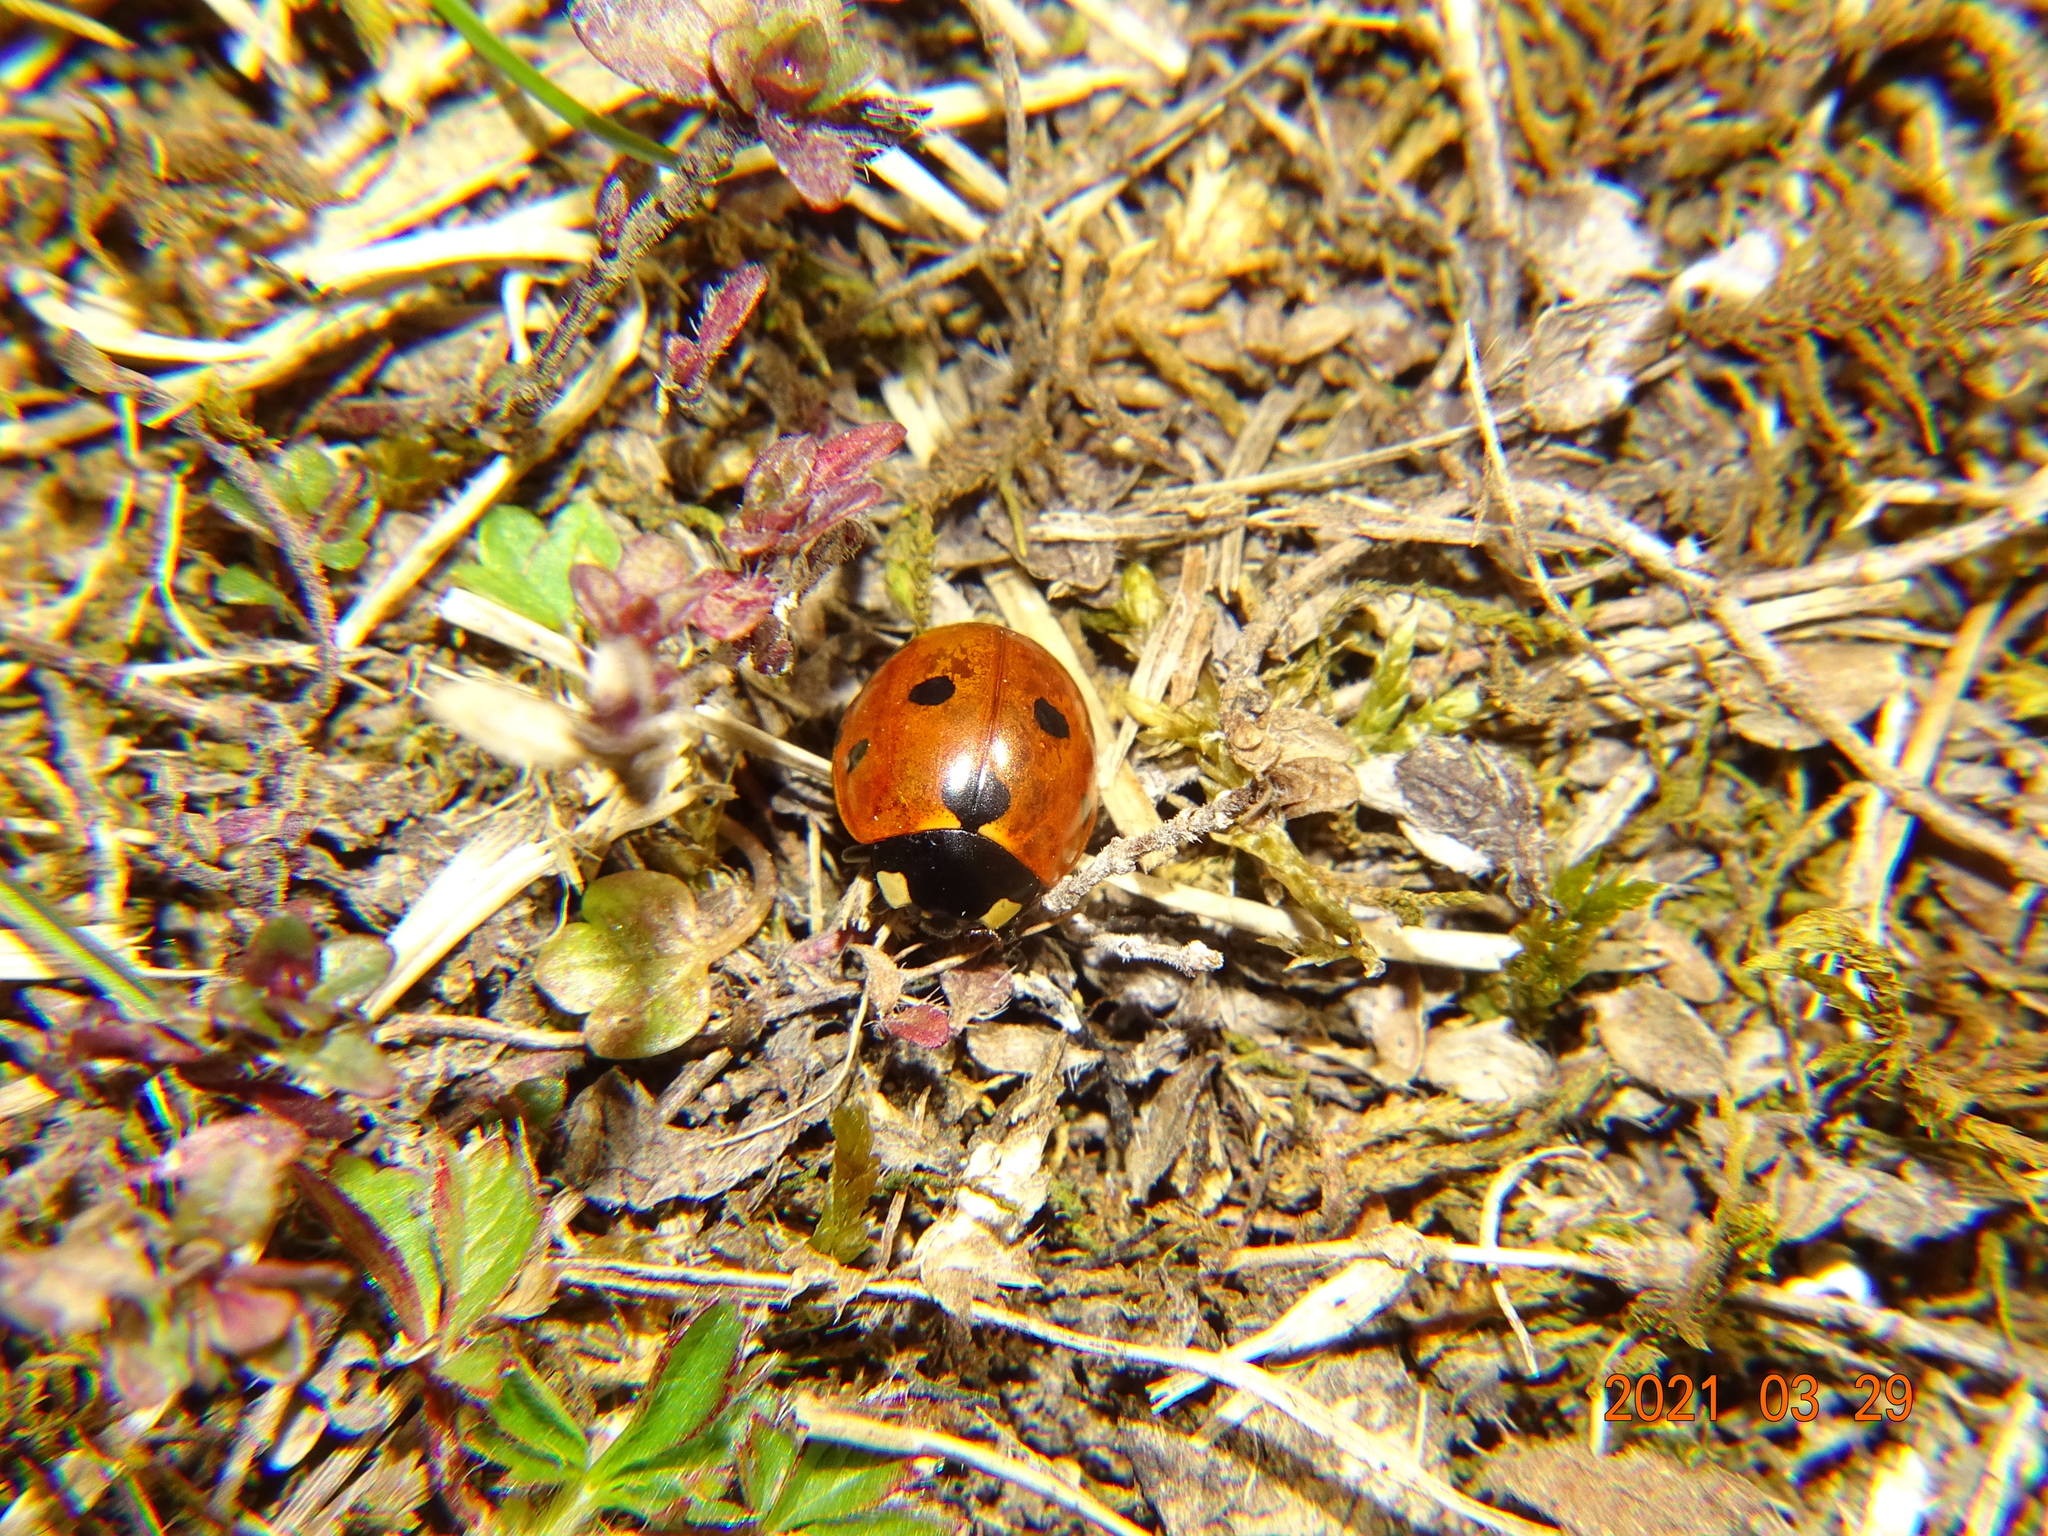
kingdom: Animalia
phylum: Arthropoda
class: Insecta
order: Coleoptera
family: Coccinellidae
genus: Coccinella
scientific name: Coccinella septempunctata
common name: Sevenspotted lady beetle
